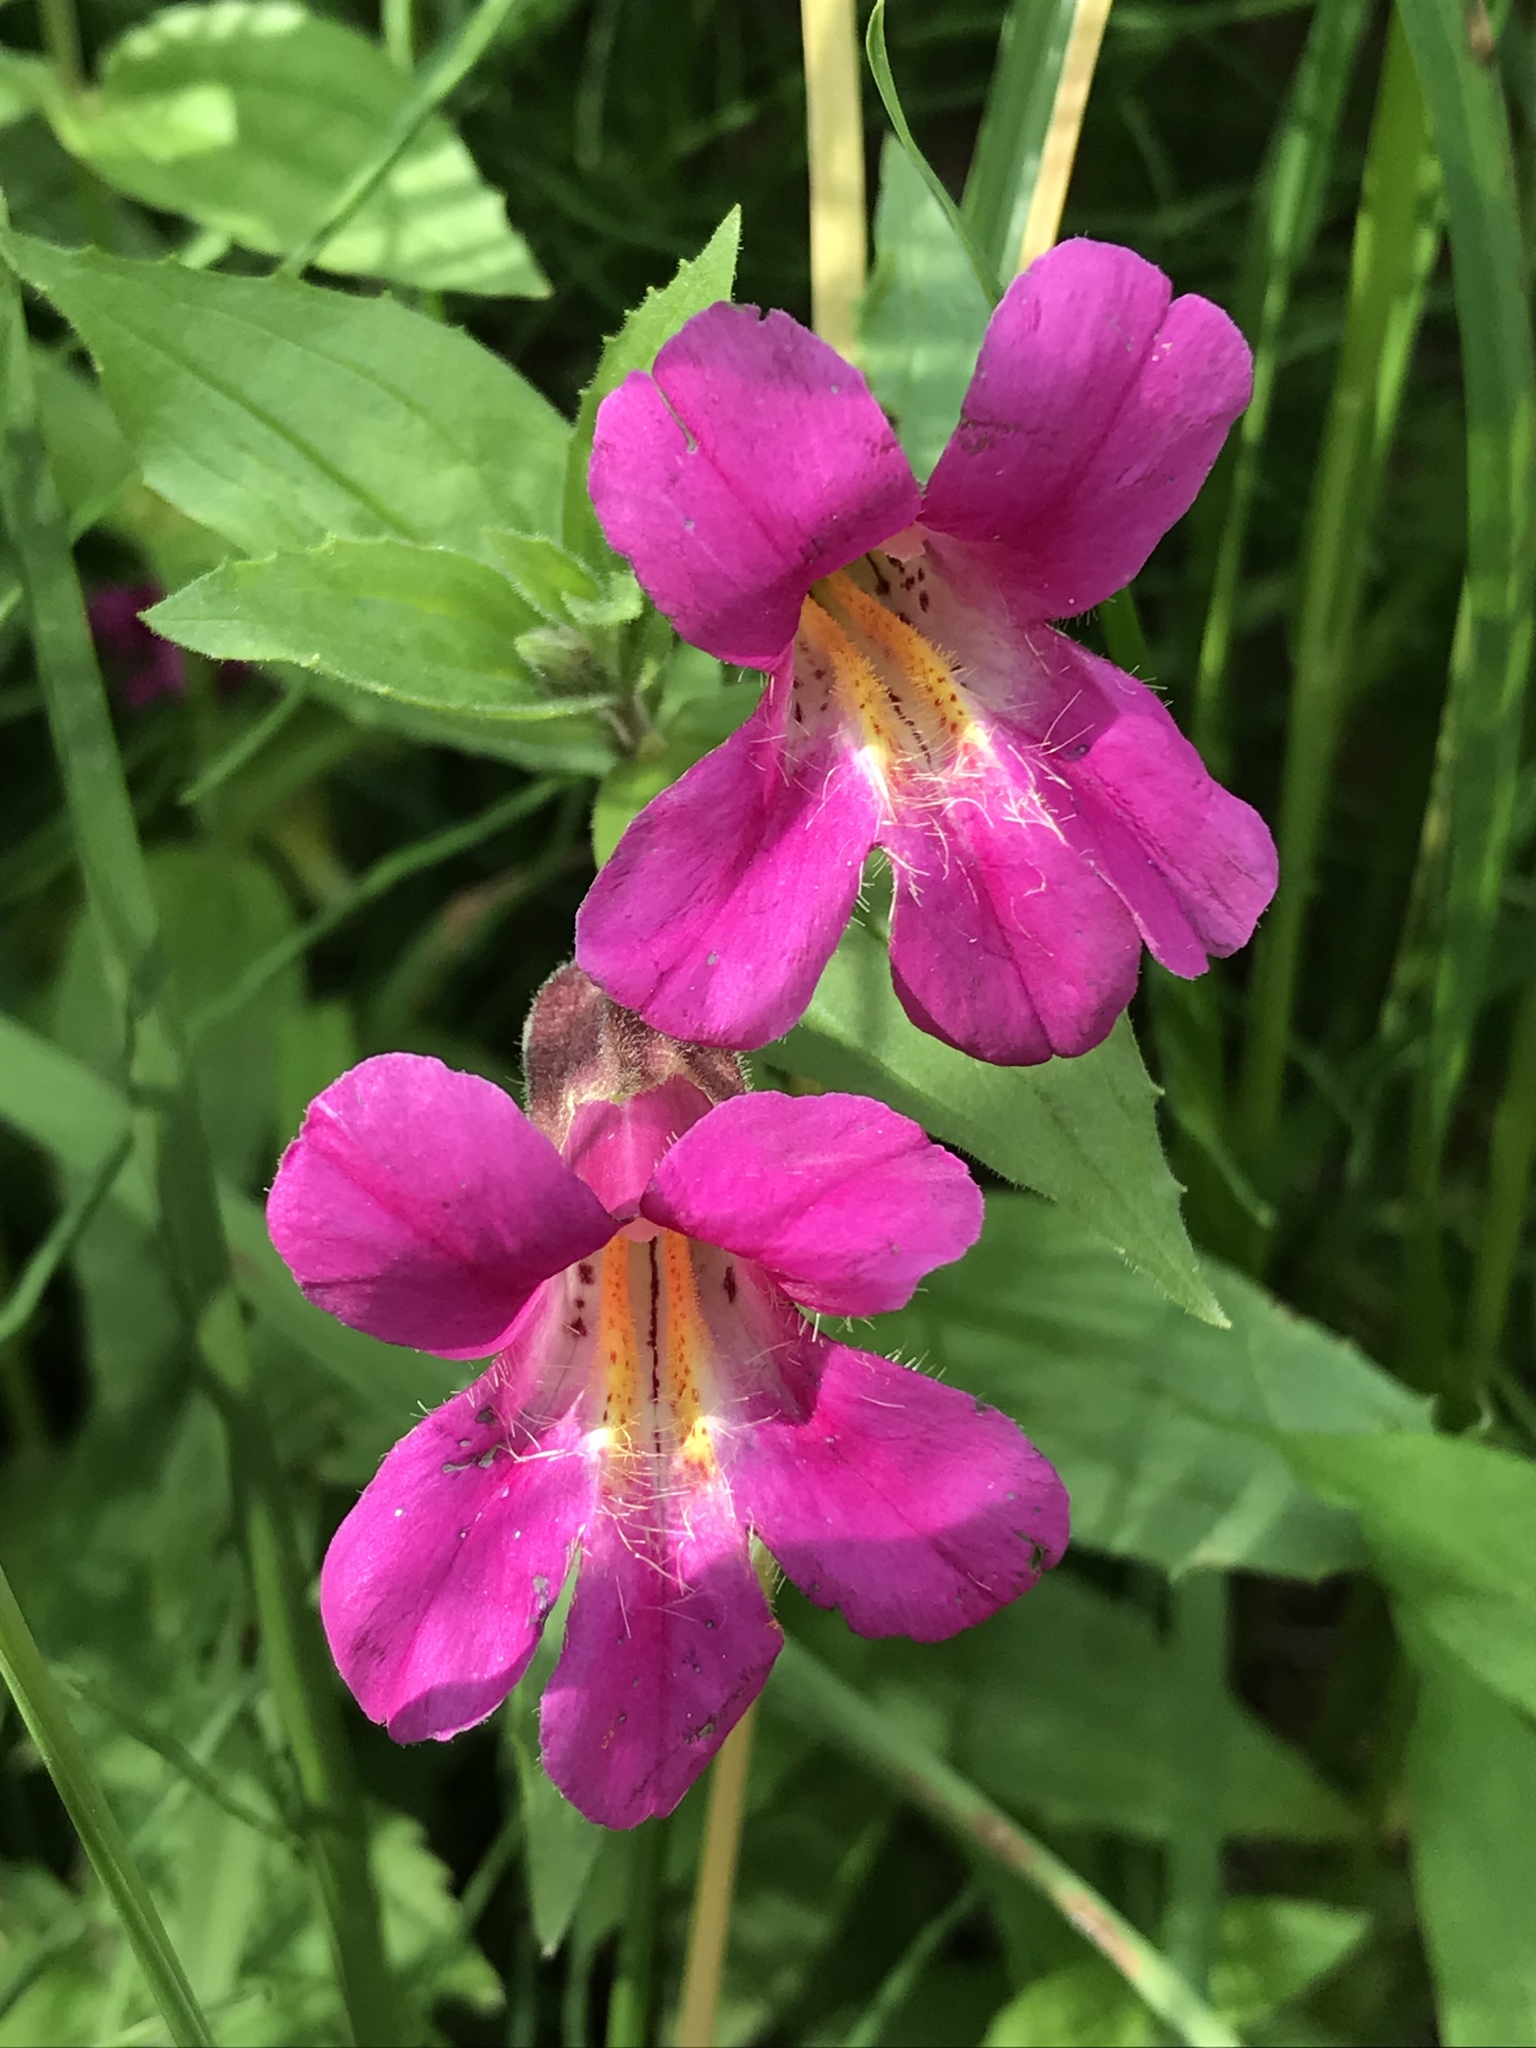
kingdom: Plantae
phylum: Tracheophyta
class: Magnoliopsida
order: Lamiales
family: Phrymaceae
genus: Erythranthe
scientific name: Erythranthe lewisii
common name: Lewis's monkey-flower
